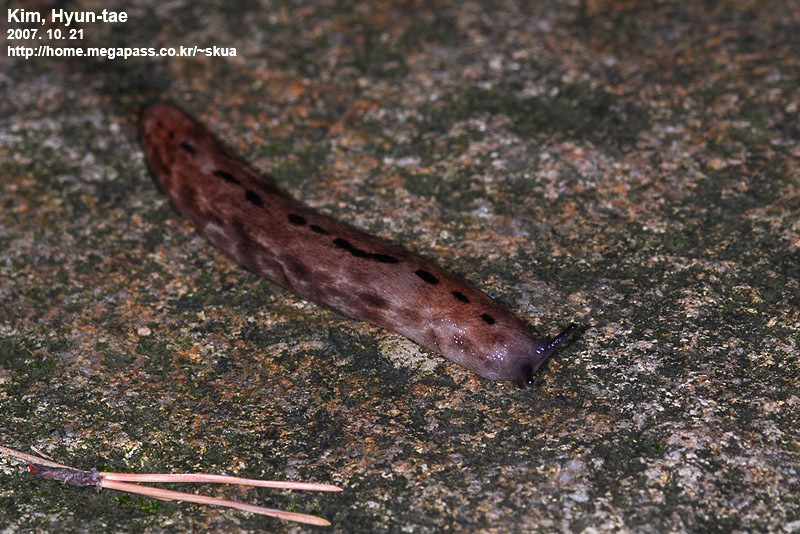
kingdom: Animalia
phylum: Mollusca
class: Gastropoda
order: Stylommatophora
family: Philomycidae
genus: Meghimatium
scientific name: Meghimatium fruhstorferi
